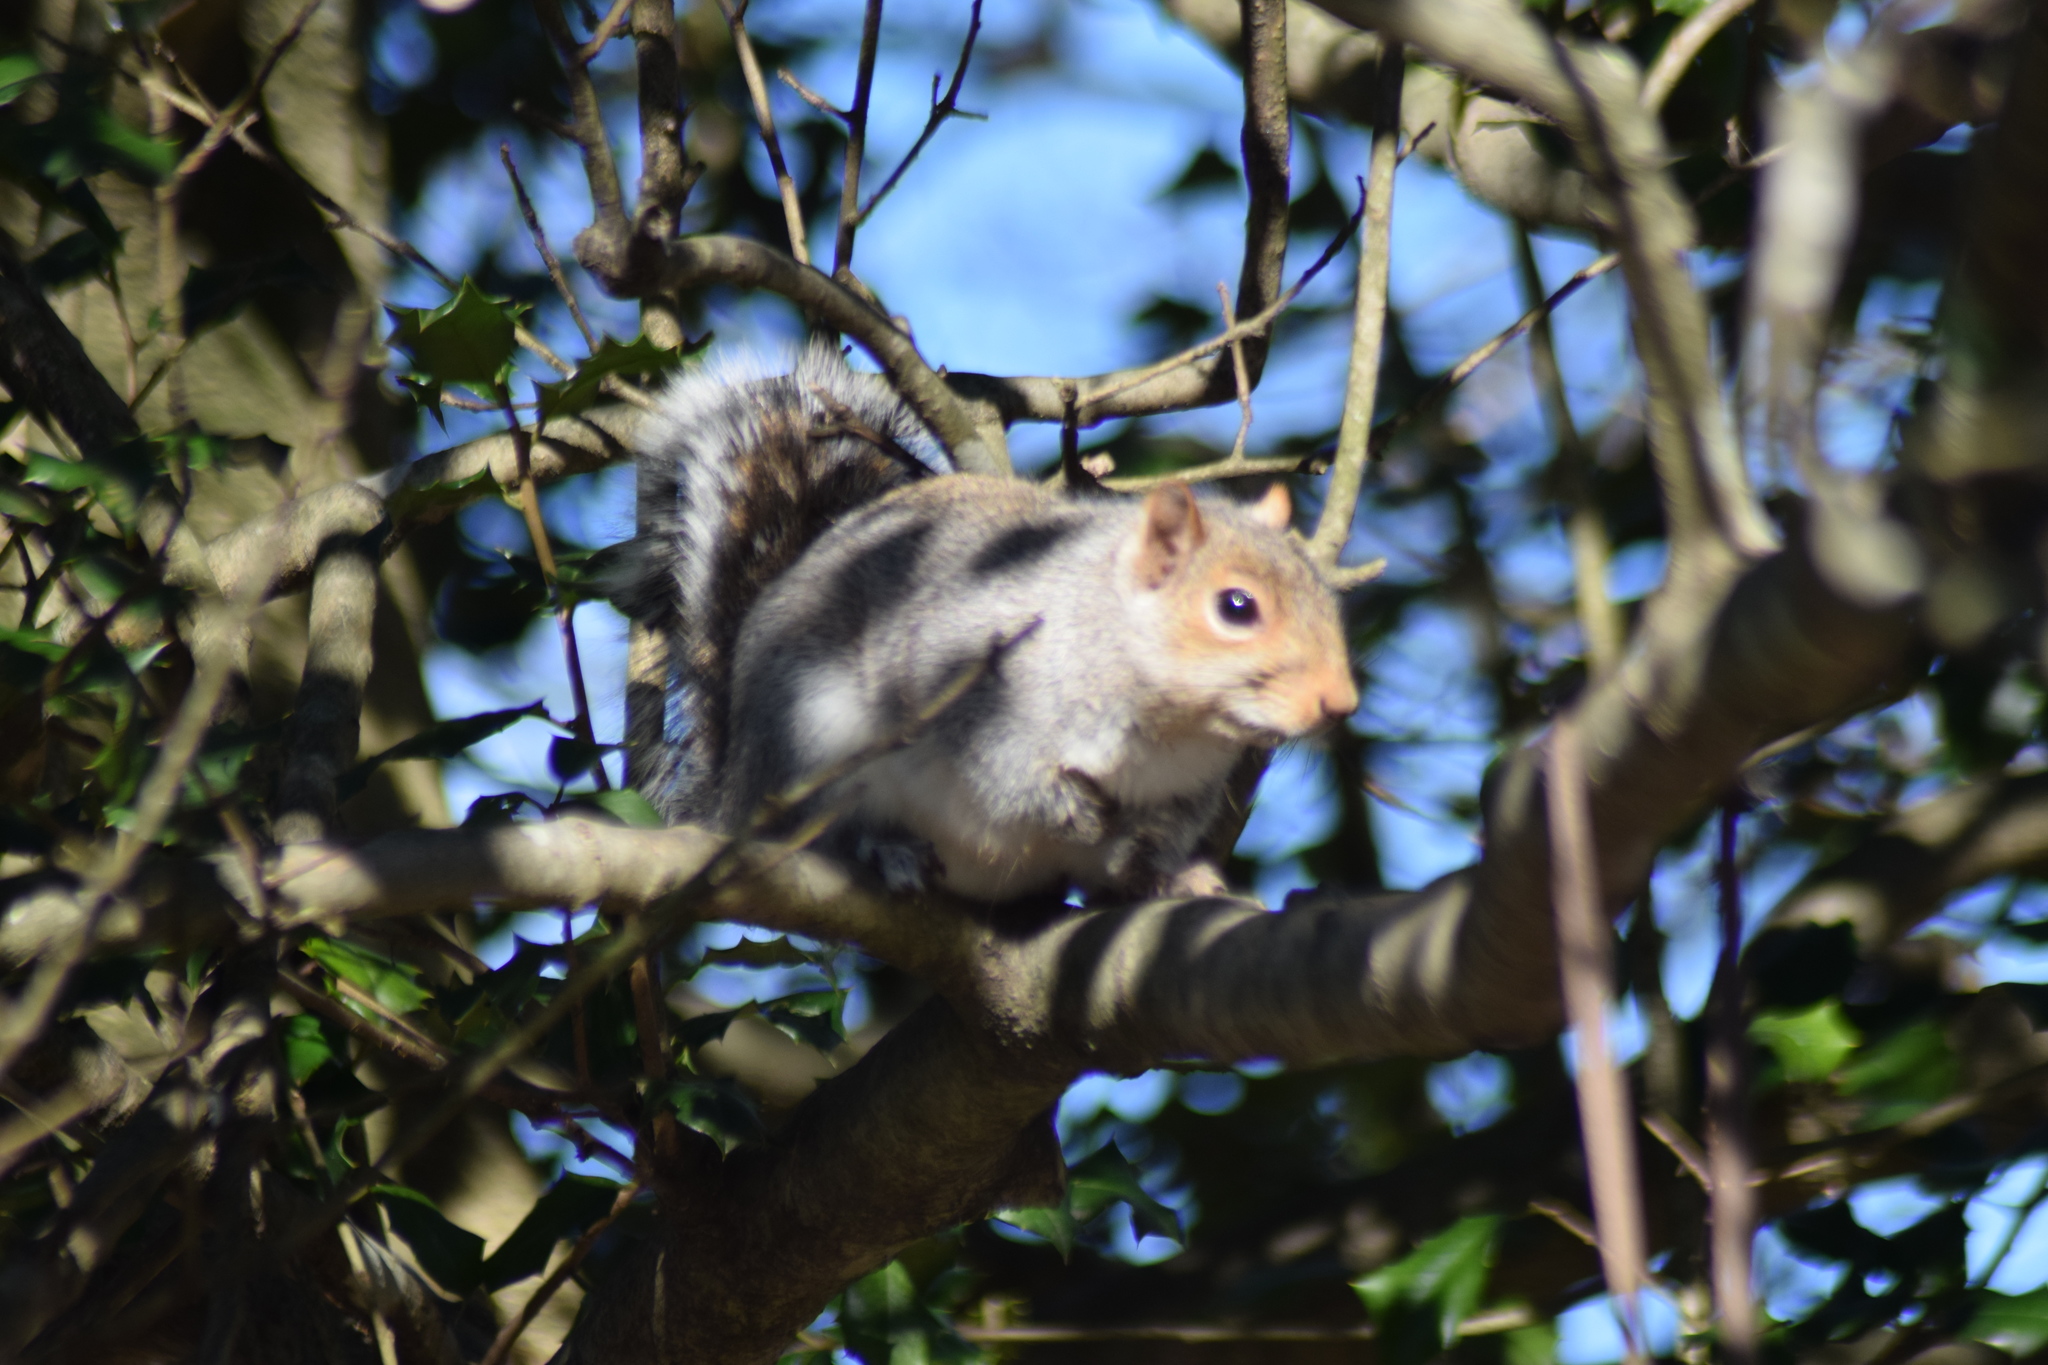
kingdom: Animalia
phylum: Chordata
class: Mammalia
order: Rodentia
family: Sciuridae
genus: Sciurus
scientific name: Sciurus carolinensis
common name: Eastern gray squirrel
